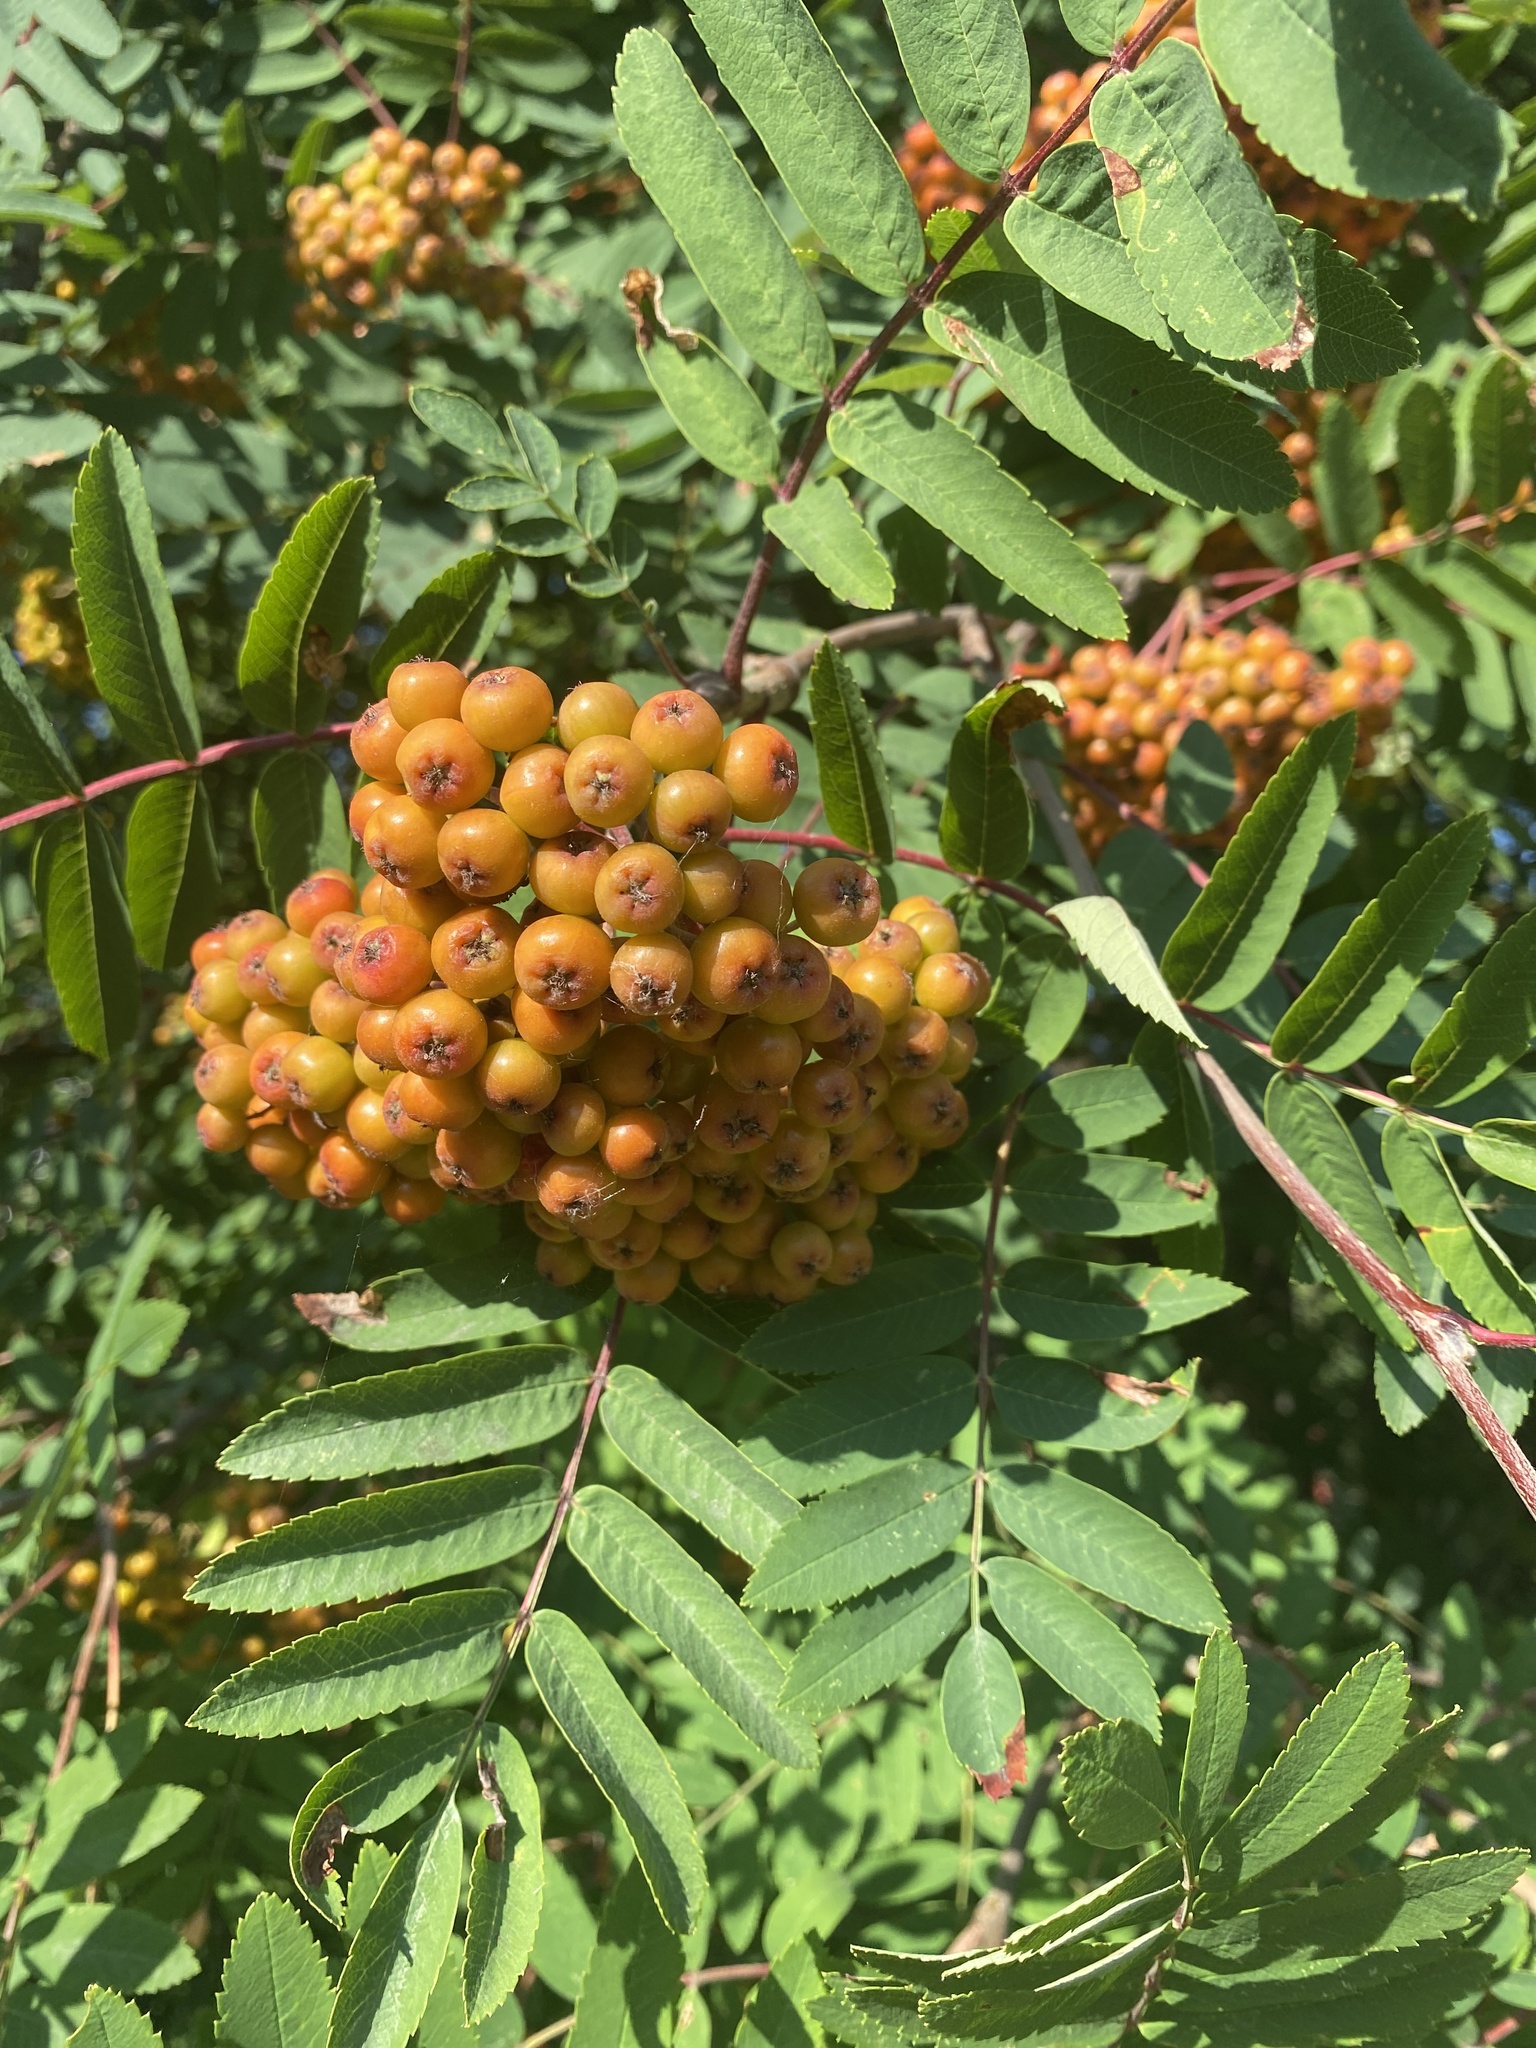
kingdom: Plantae
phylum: Tracheophyta
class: Magnoliopsida
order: Rosales
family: Rosaceae
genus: Sorbus
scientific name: Sorbus aucuparia
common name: Rowan
